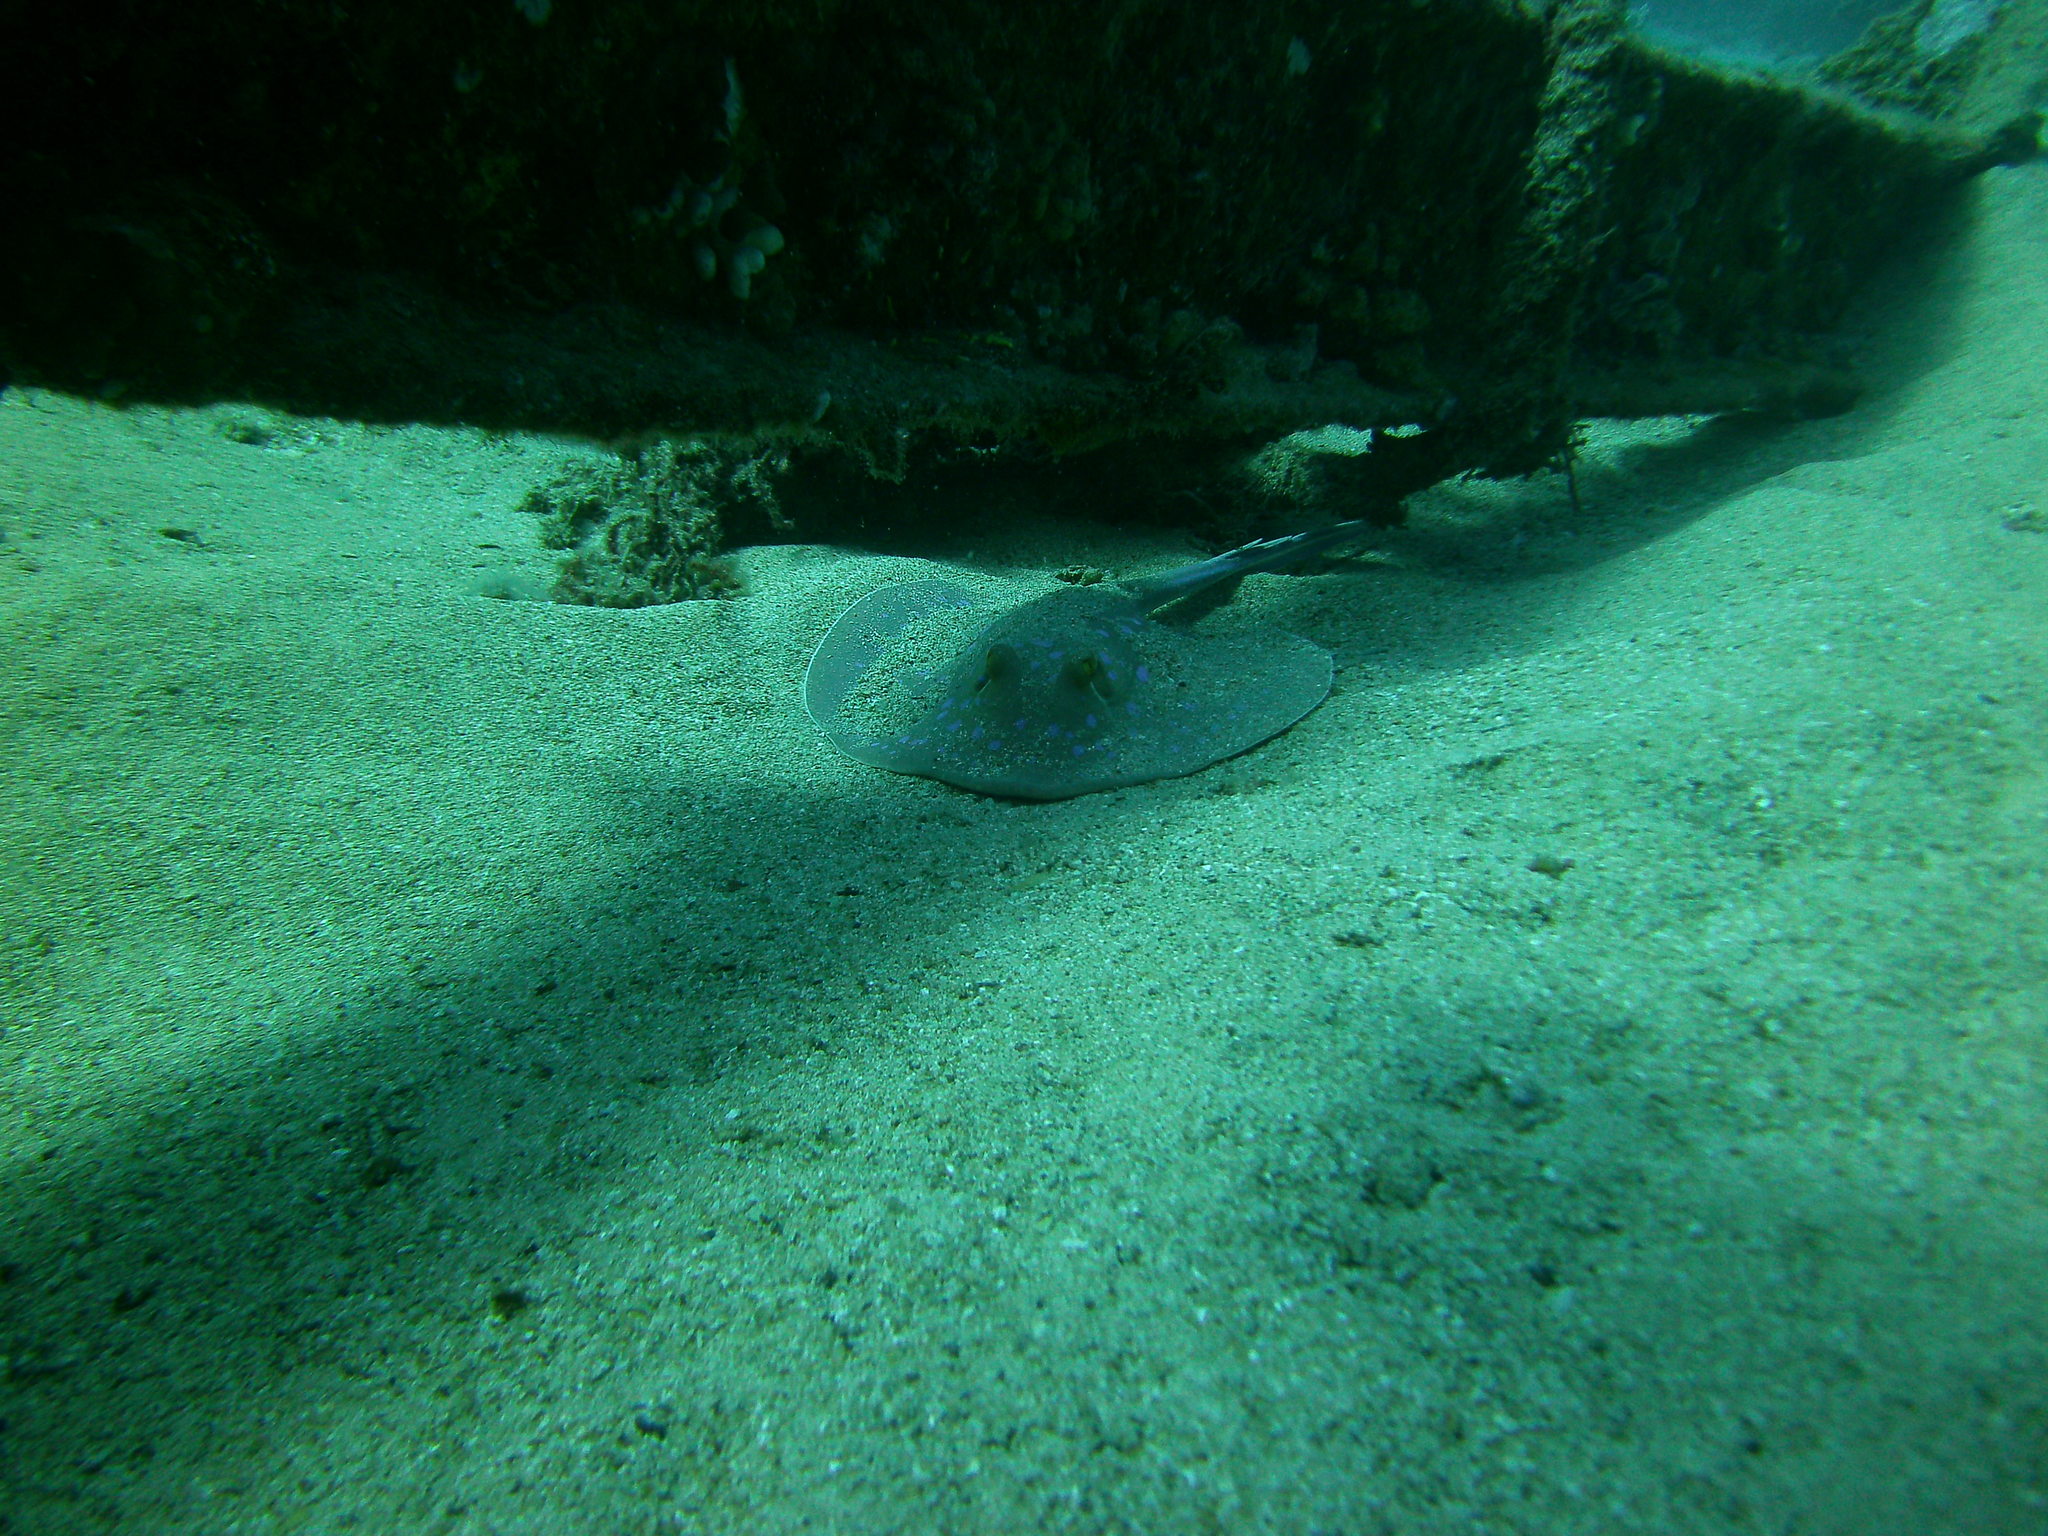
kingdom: Animalia
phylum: Chordata
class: Elasmobranchii
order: Myliobatiformes
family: Dasyatidae
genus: Taeniura
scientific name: Taeniura lymma
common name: Bluespotted ribbontail ray
